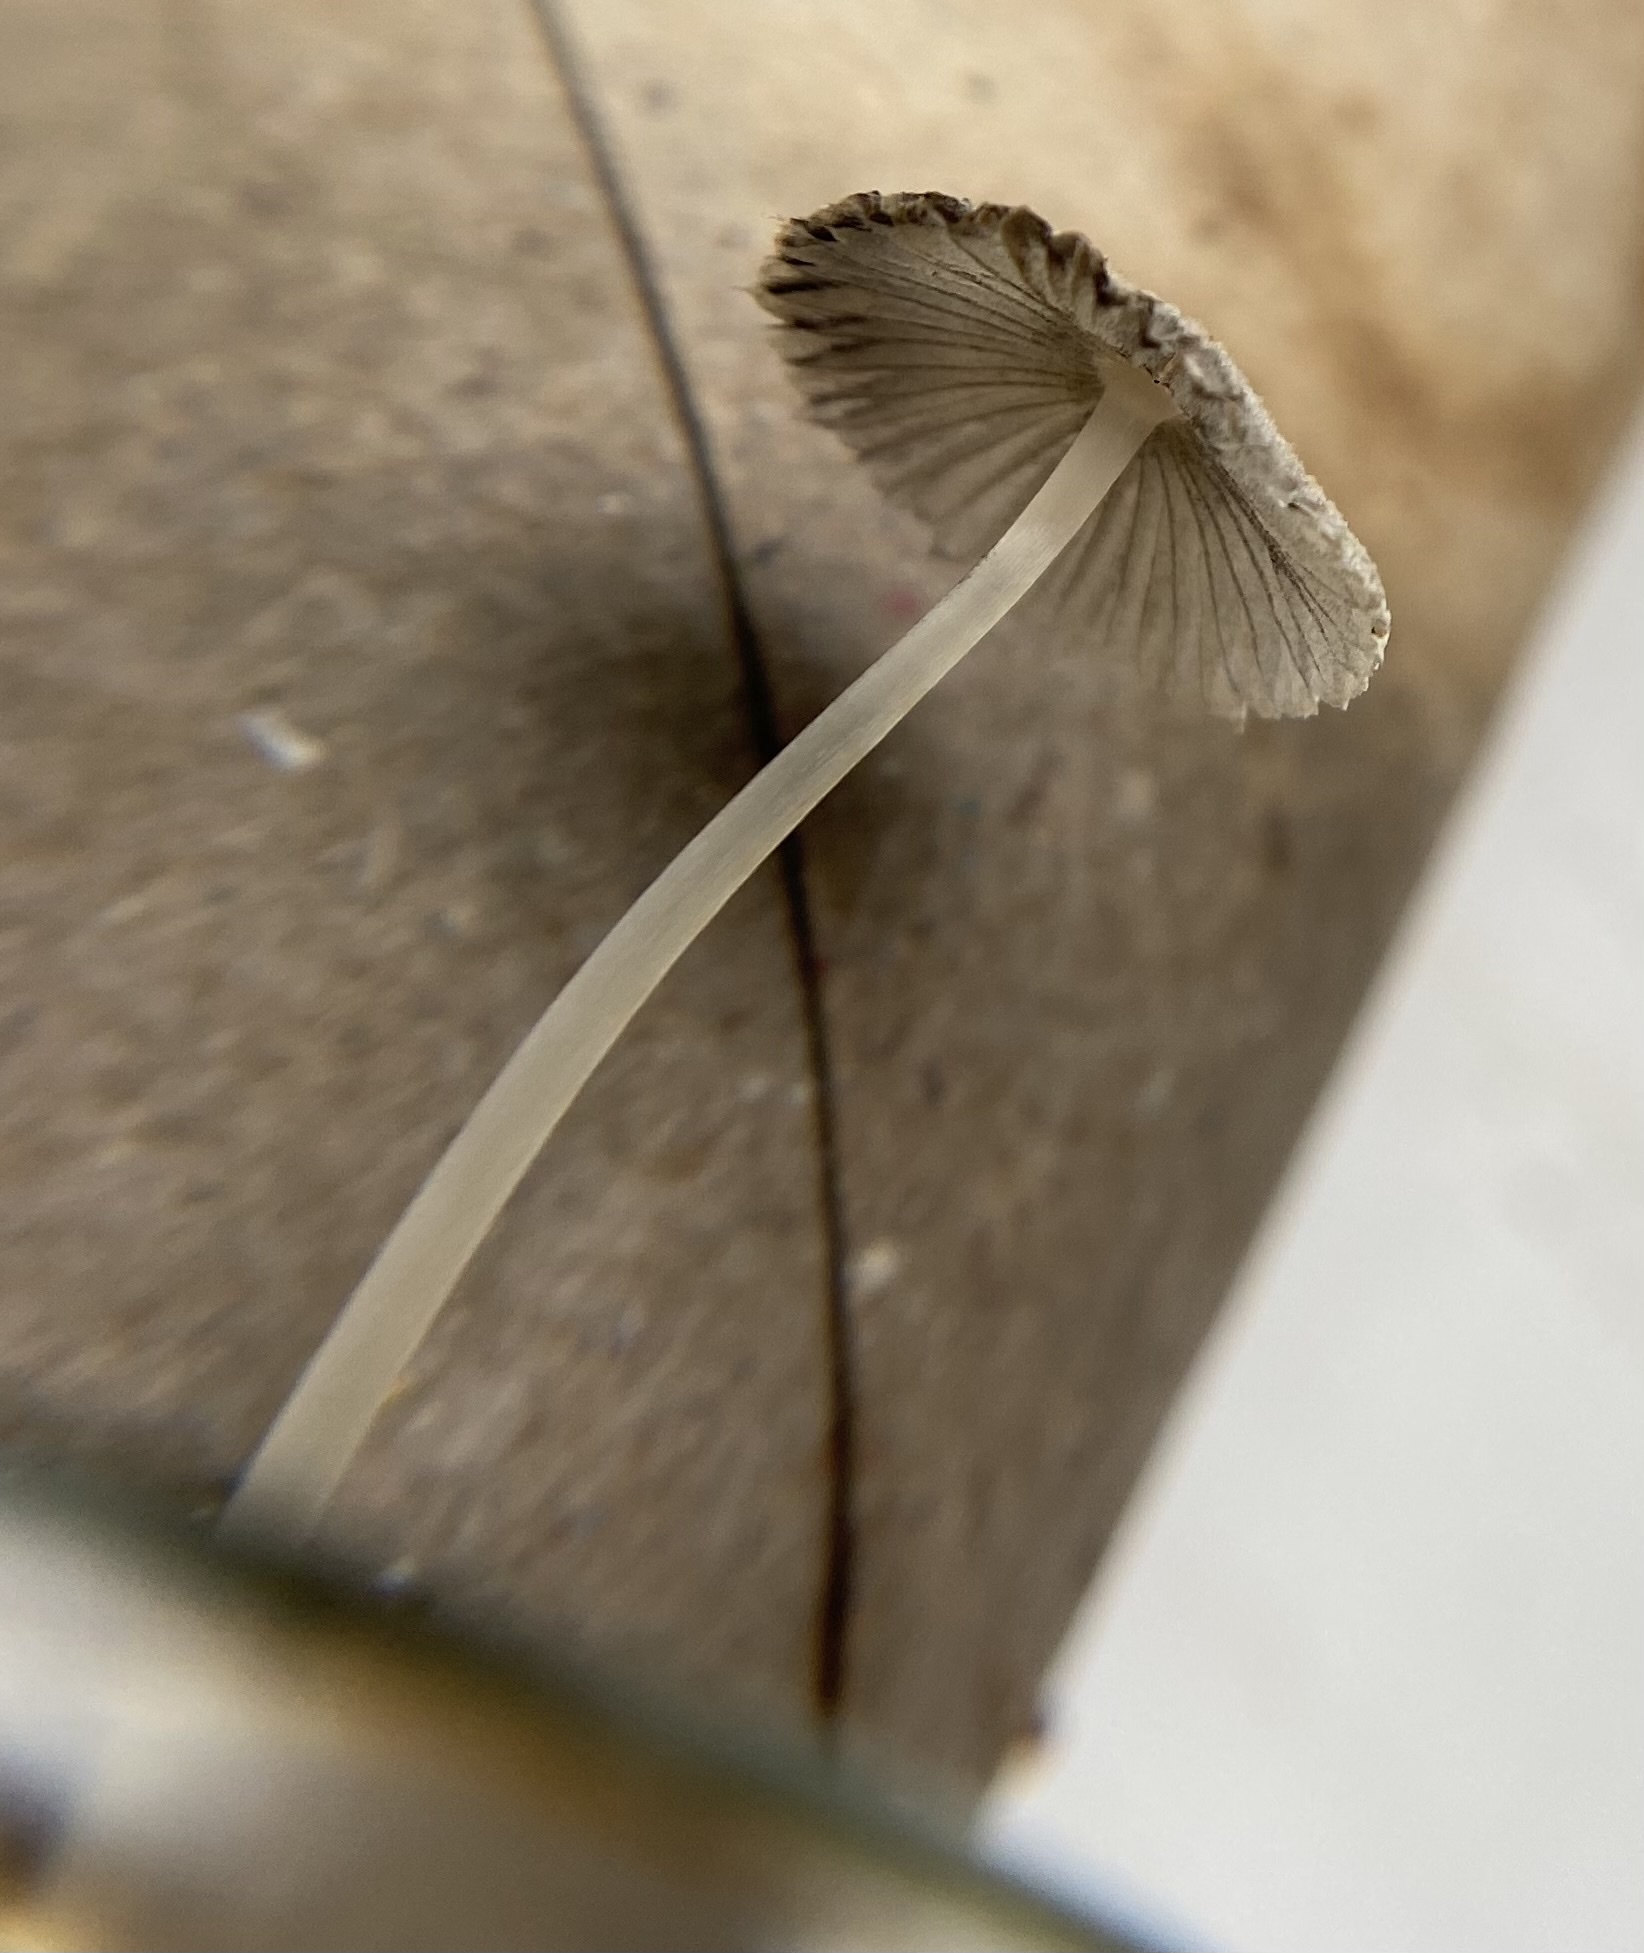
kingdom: Fungi
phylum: Basidiomycota
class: Agaricomycetes
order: Agaricales
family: Psathyrellaceae
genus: Narcissea
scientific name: Narcissea patouillardii
